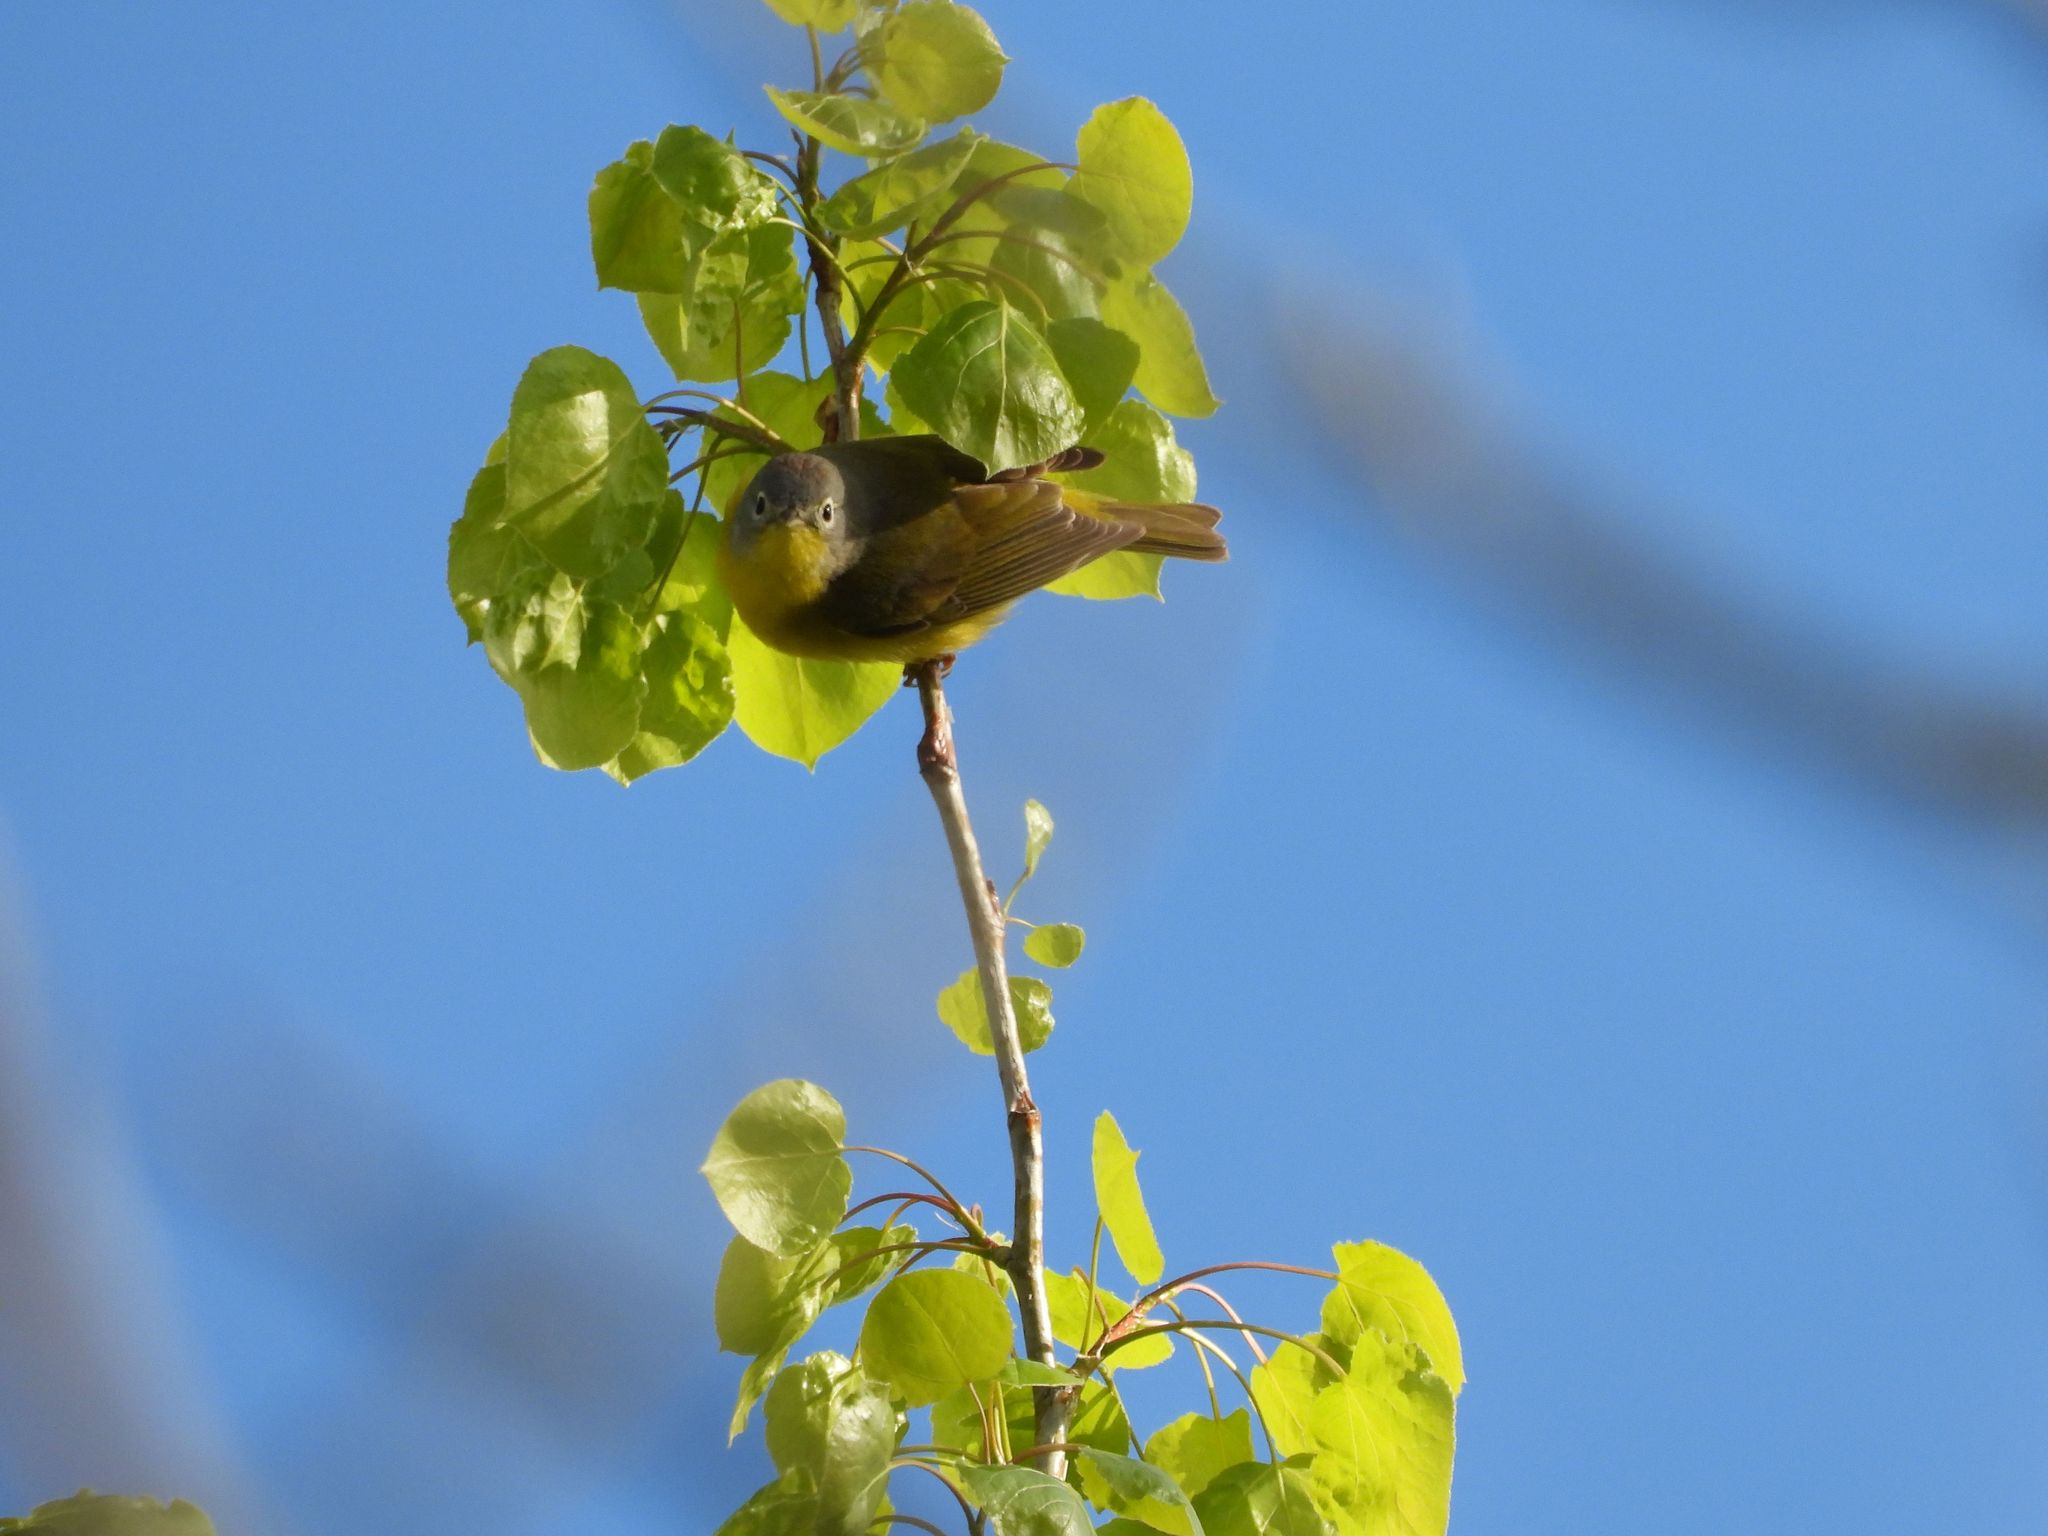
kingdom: Animalia
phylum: Chordata
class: Aves
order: Passeriformes
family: Parulidae
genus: Leiothlypis
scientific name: Leiothlypis ruficapilla
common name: Nashville warbler
